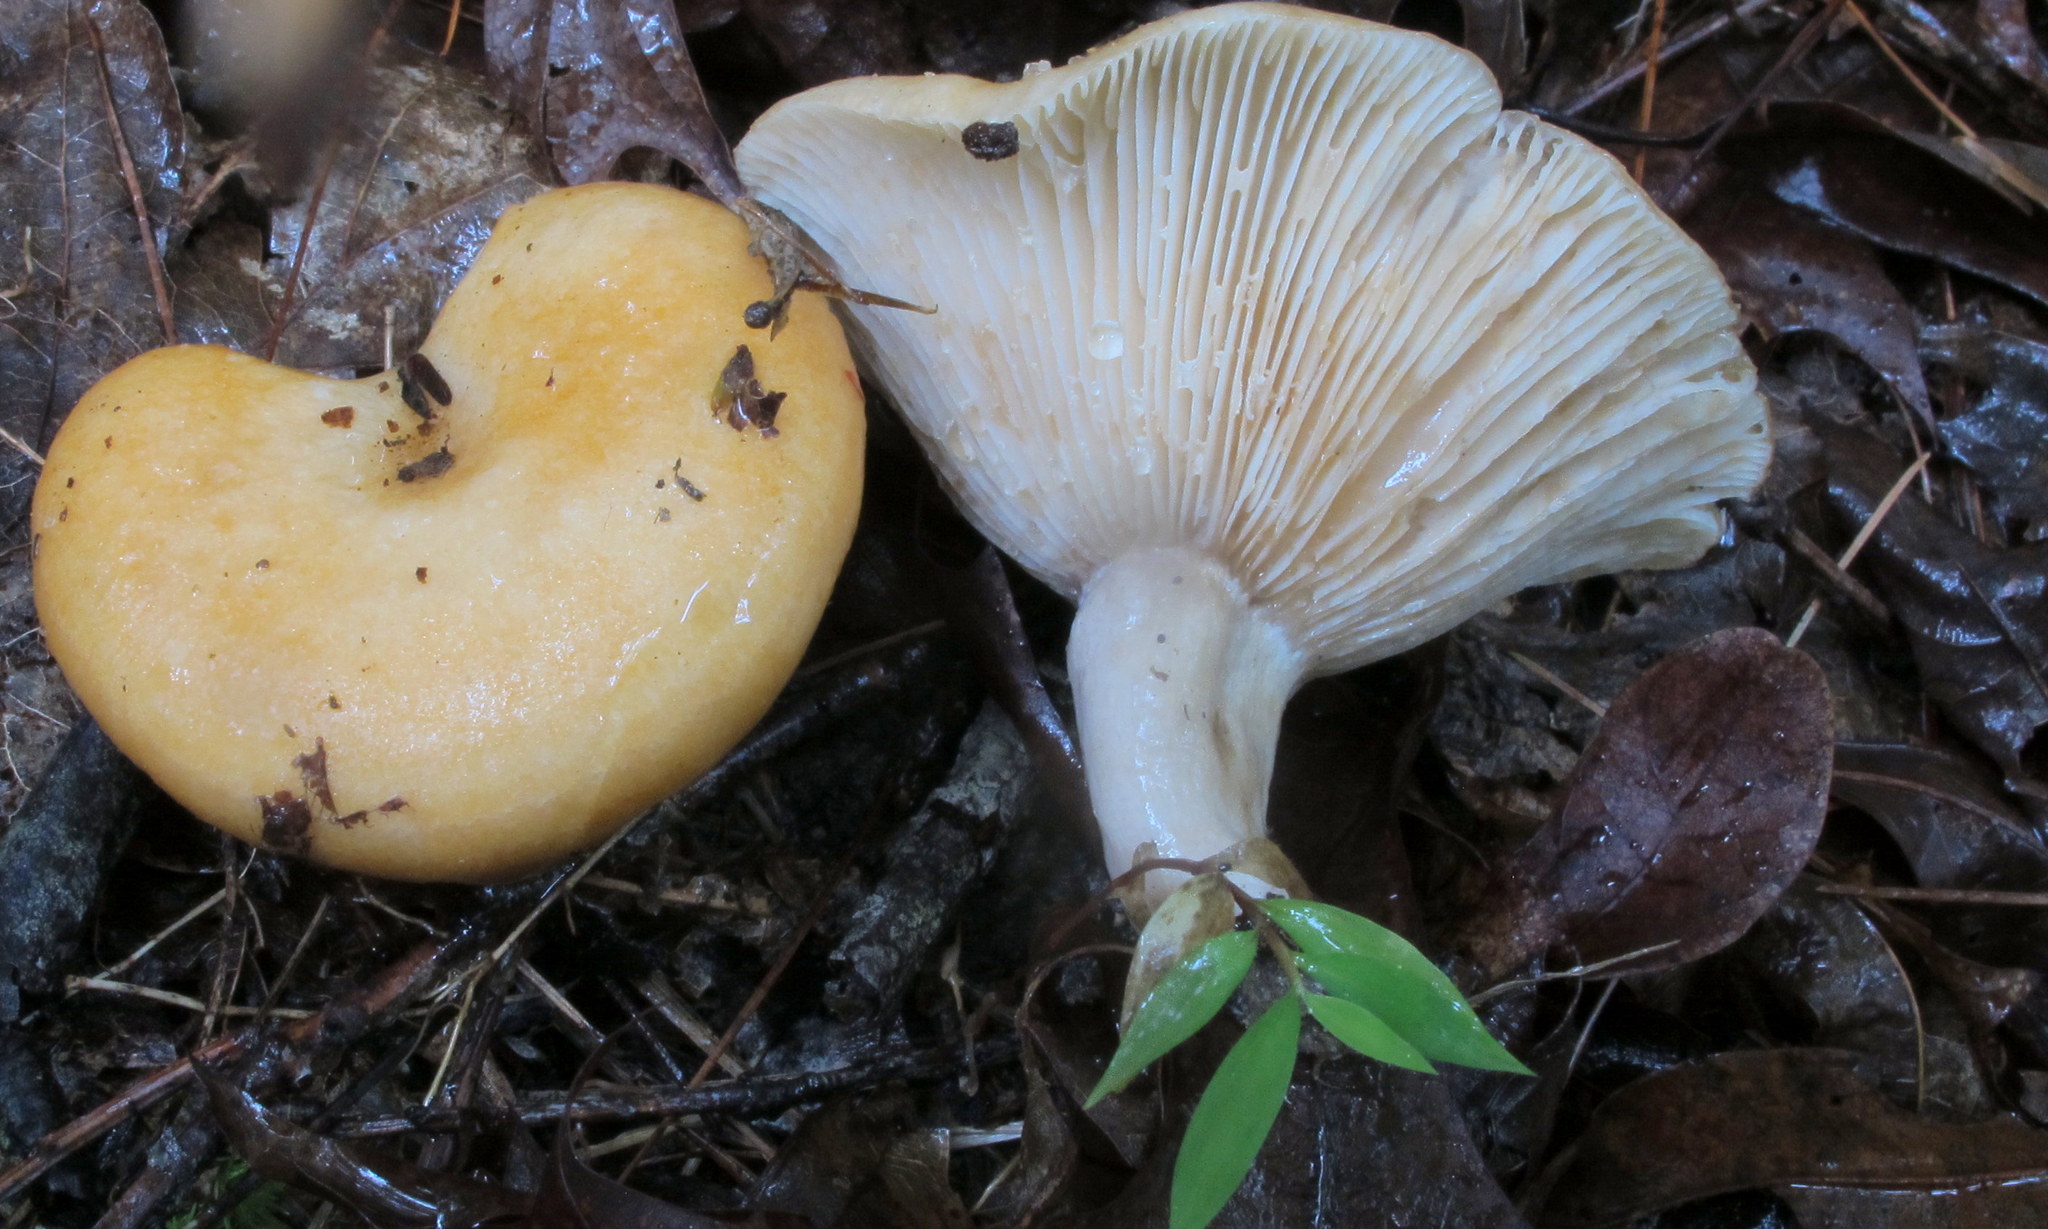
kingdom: Fungi
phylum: Basidiomycota
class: Agaricomycetes
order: Russulales
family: Russulaceae
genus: Lactarius
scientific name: Lactarius croceus
